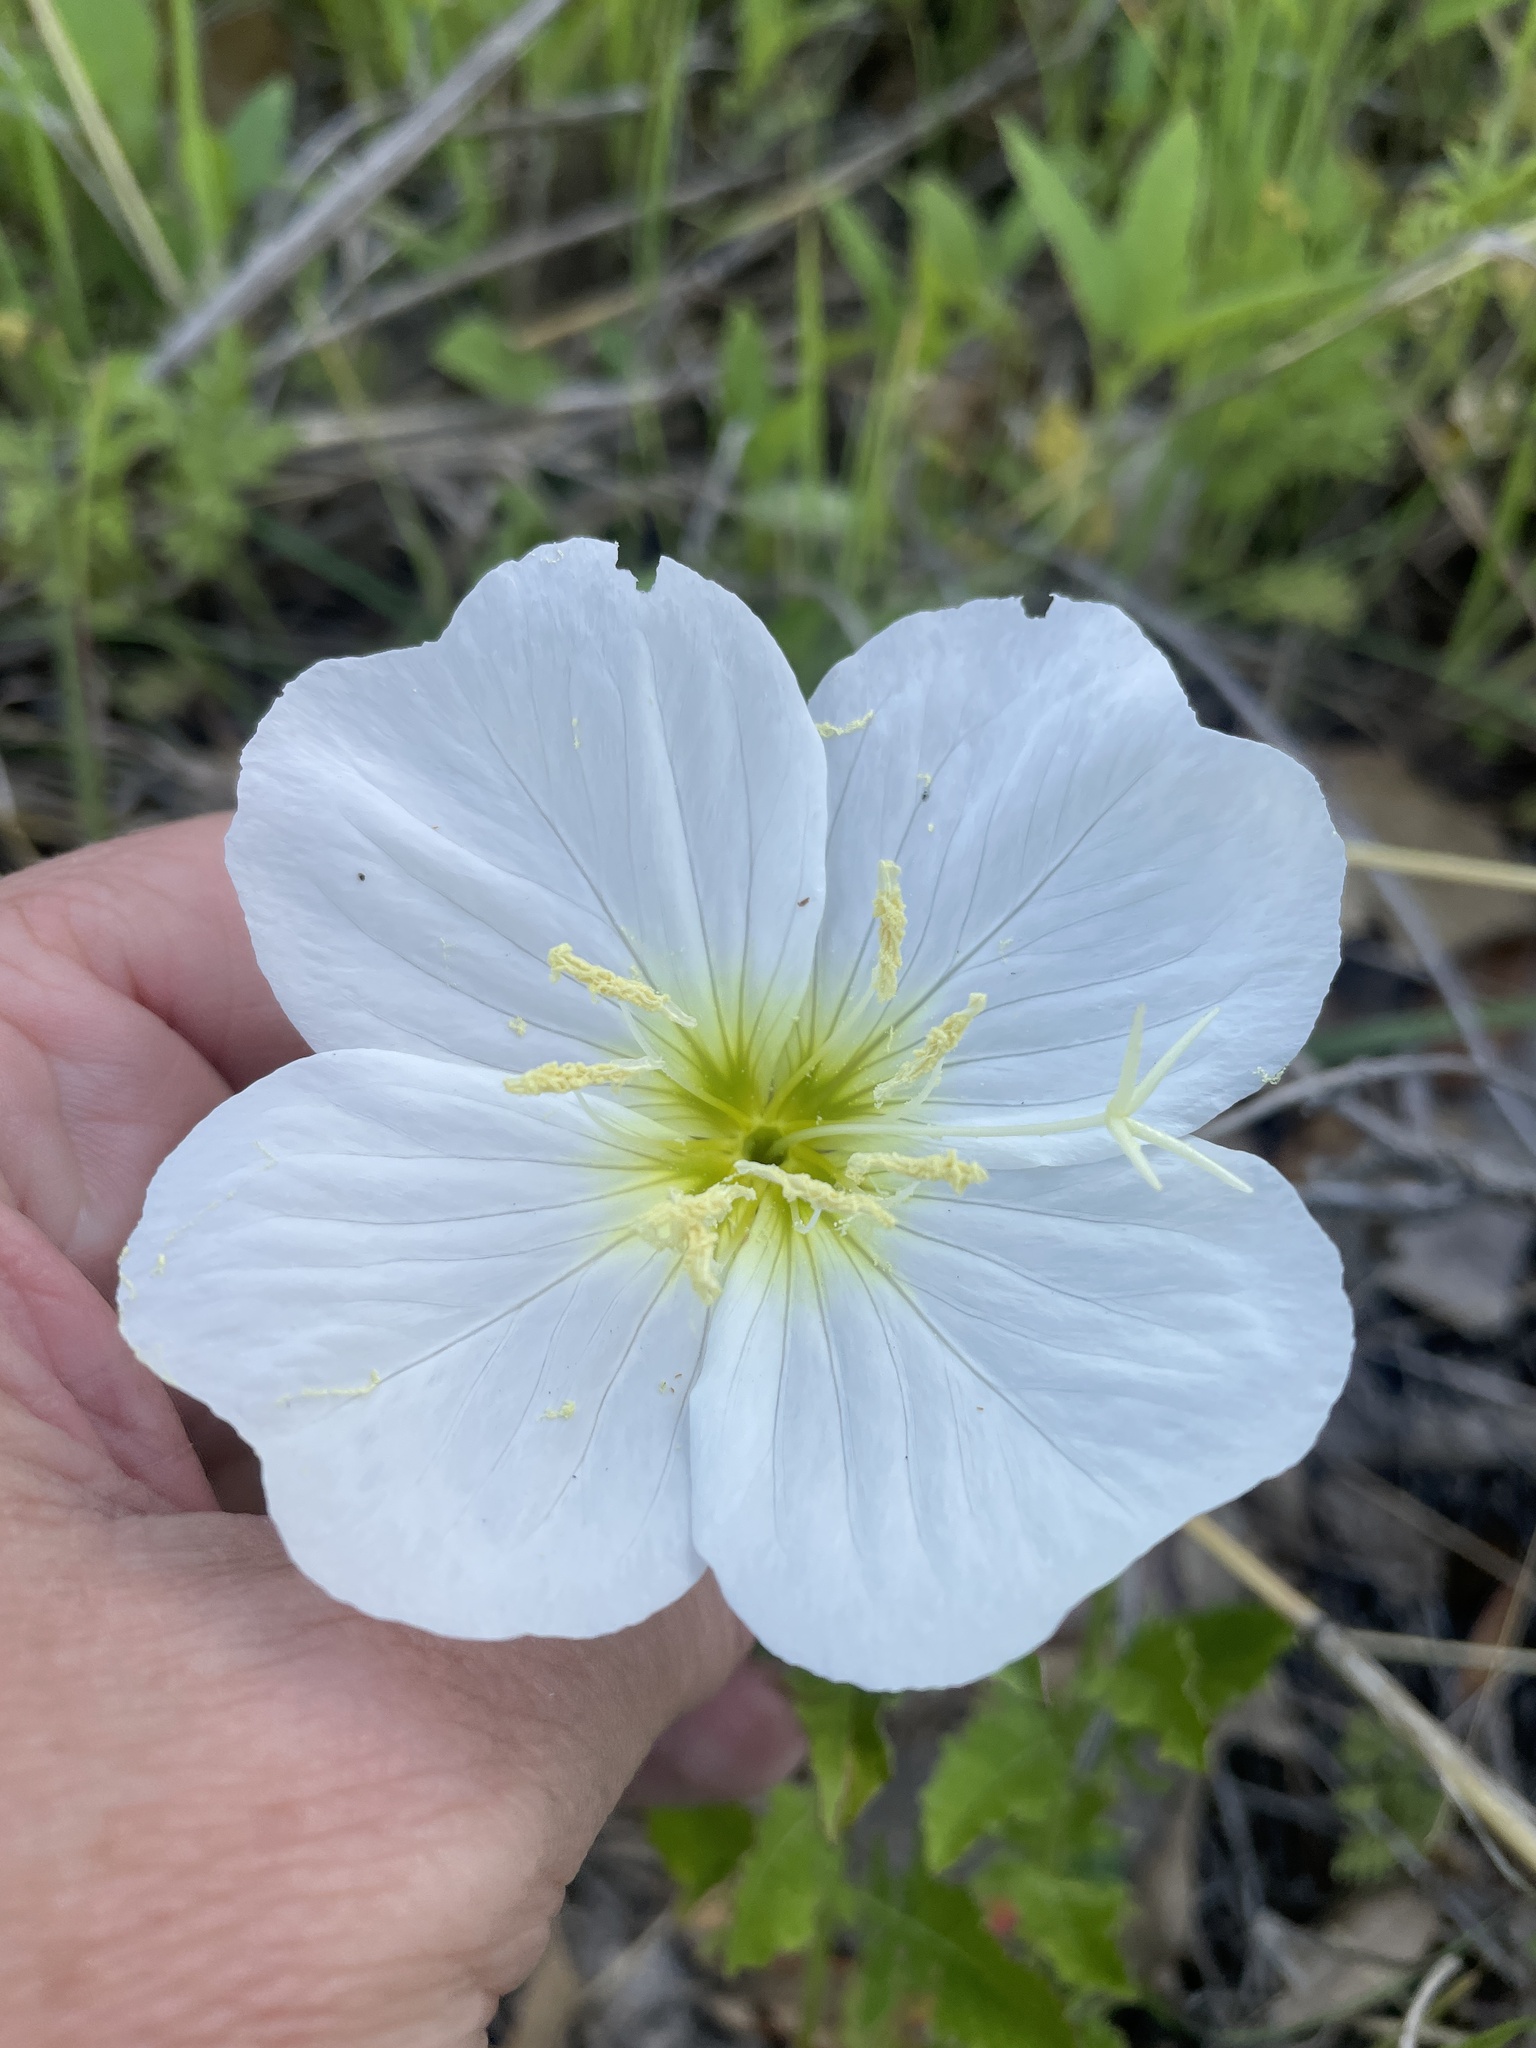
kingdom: Plantae
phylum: Tracheophyta
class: Magnoliopsida
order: Myrtales
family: Onagraceae
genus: Oenothera
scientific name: Oenothera speciosa
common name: White evening-primrose
